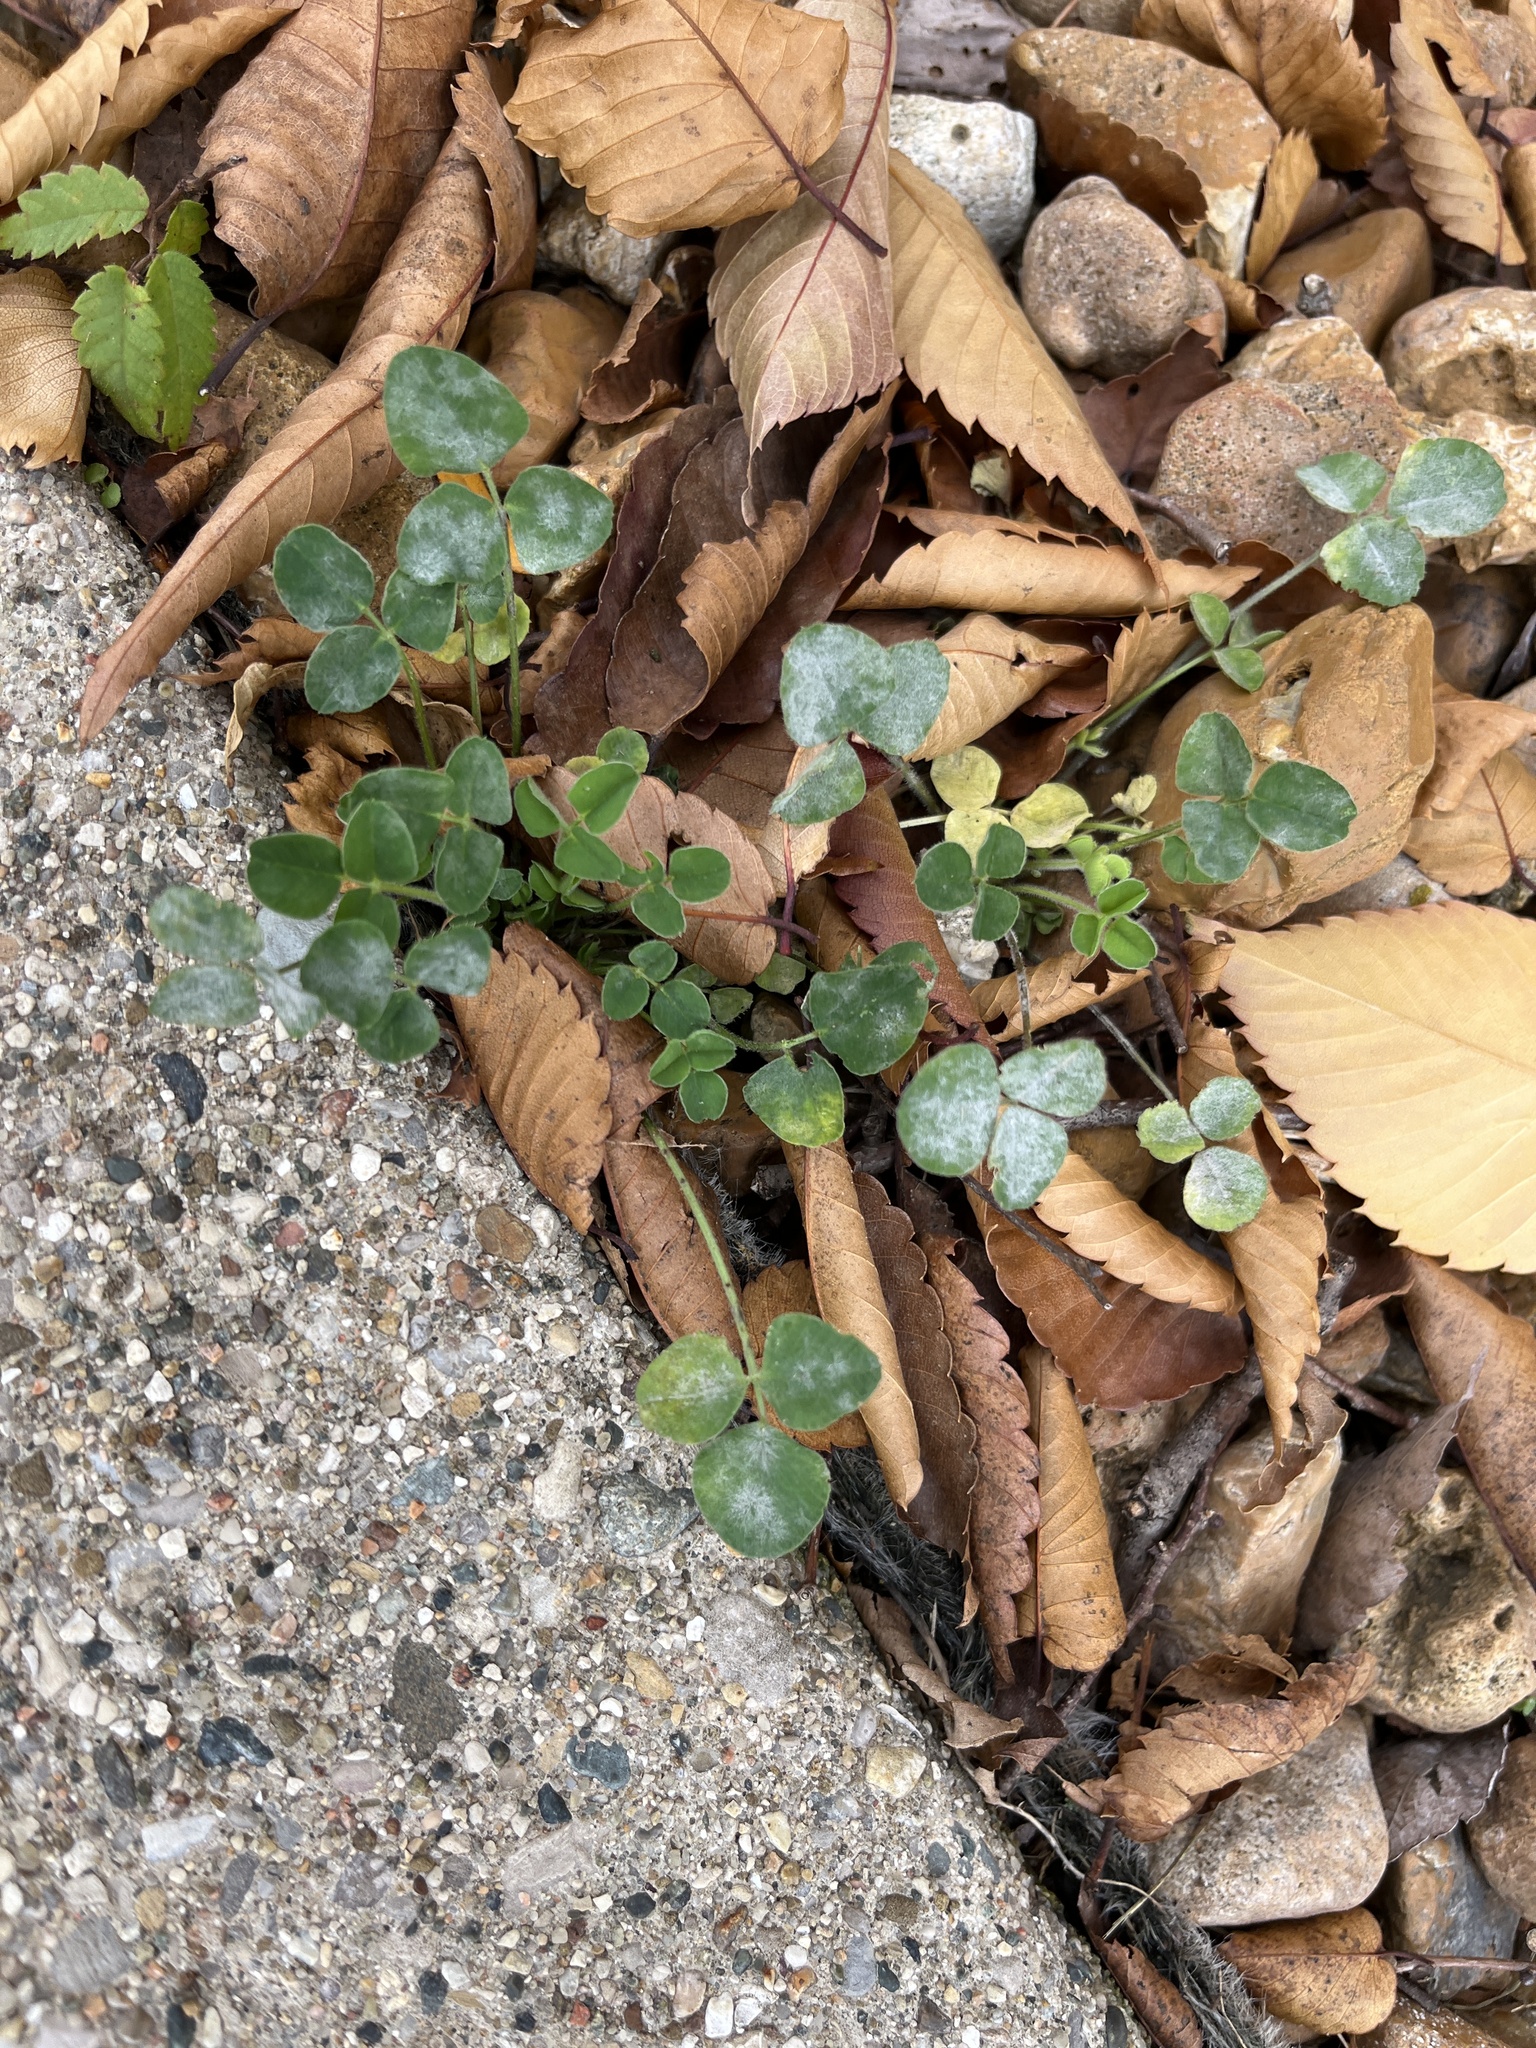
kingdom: Plantae
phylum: Tracheophyta
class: Magnoliopsida
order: Fabales
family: Fabaceae
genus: Trifolium
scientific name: Trifolium repens
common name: White clover
